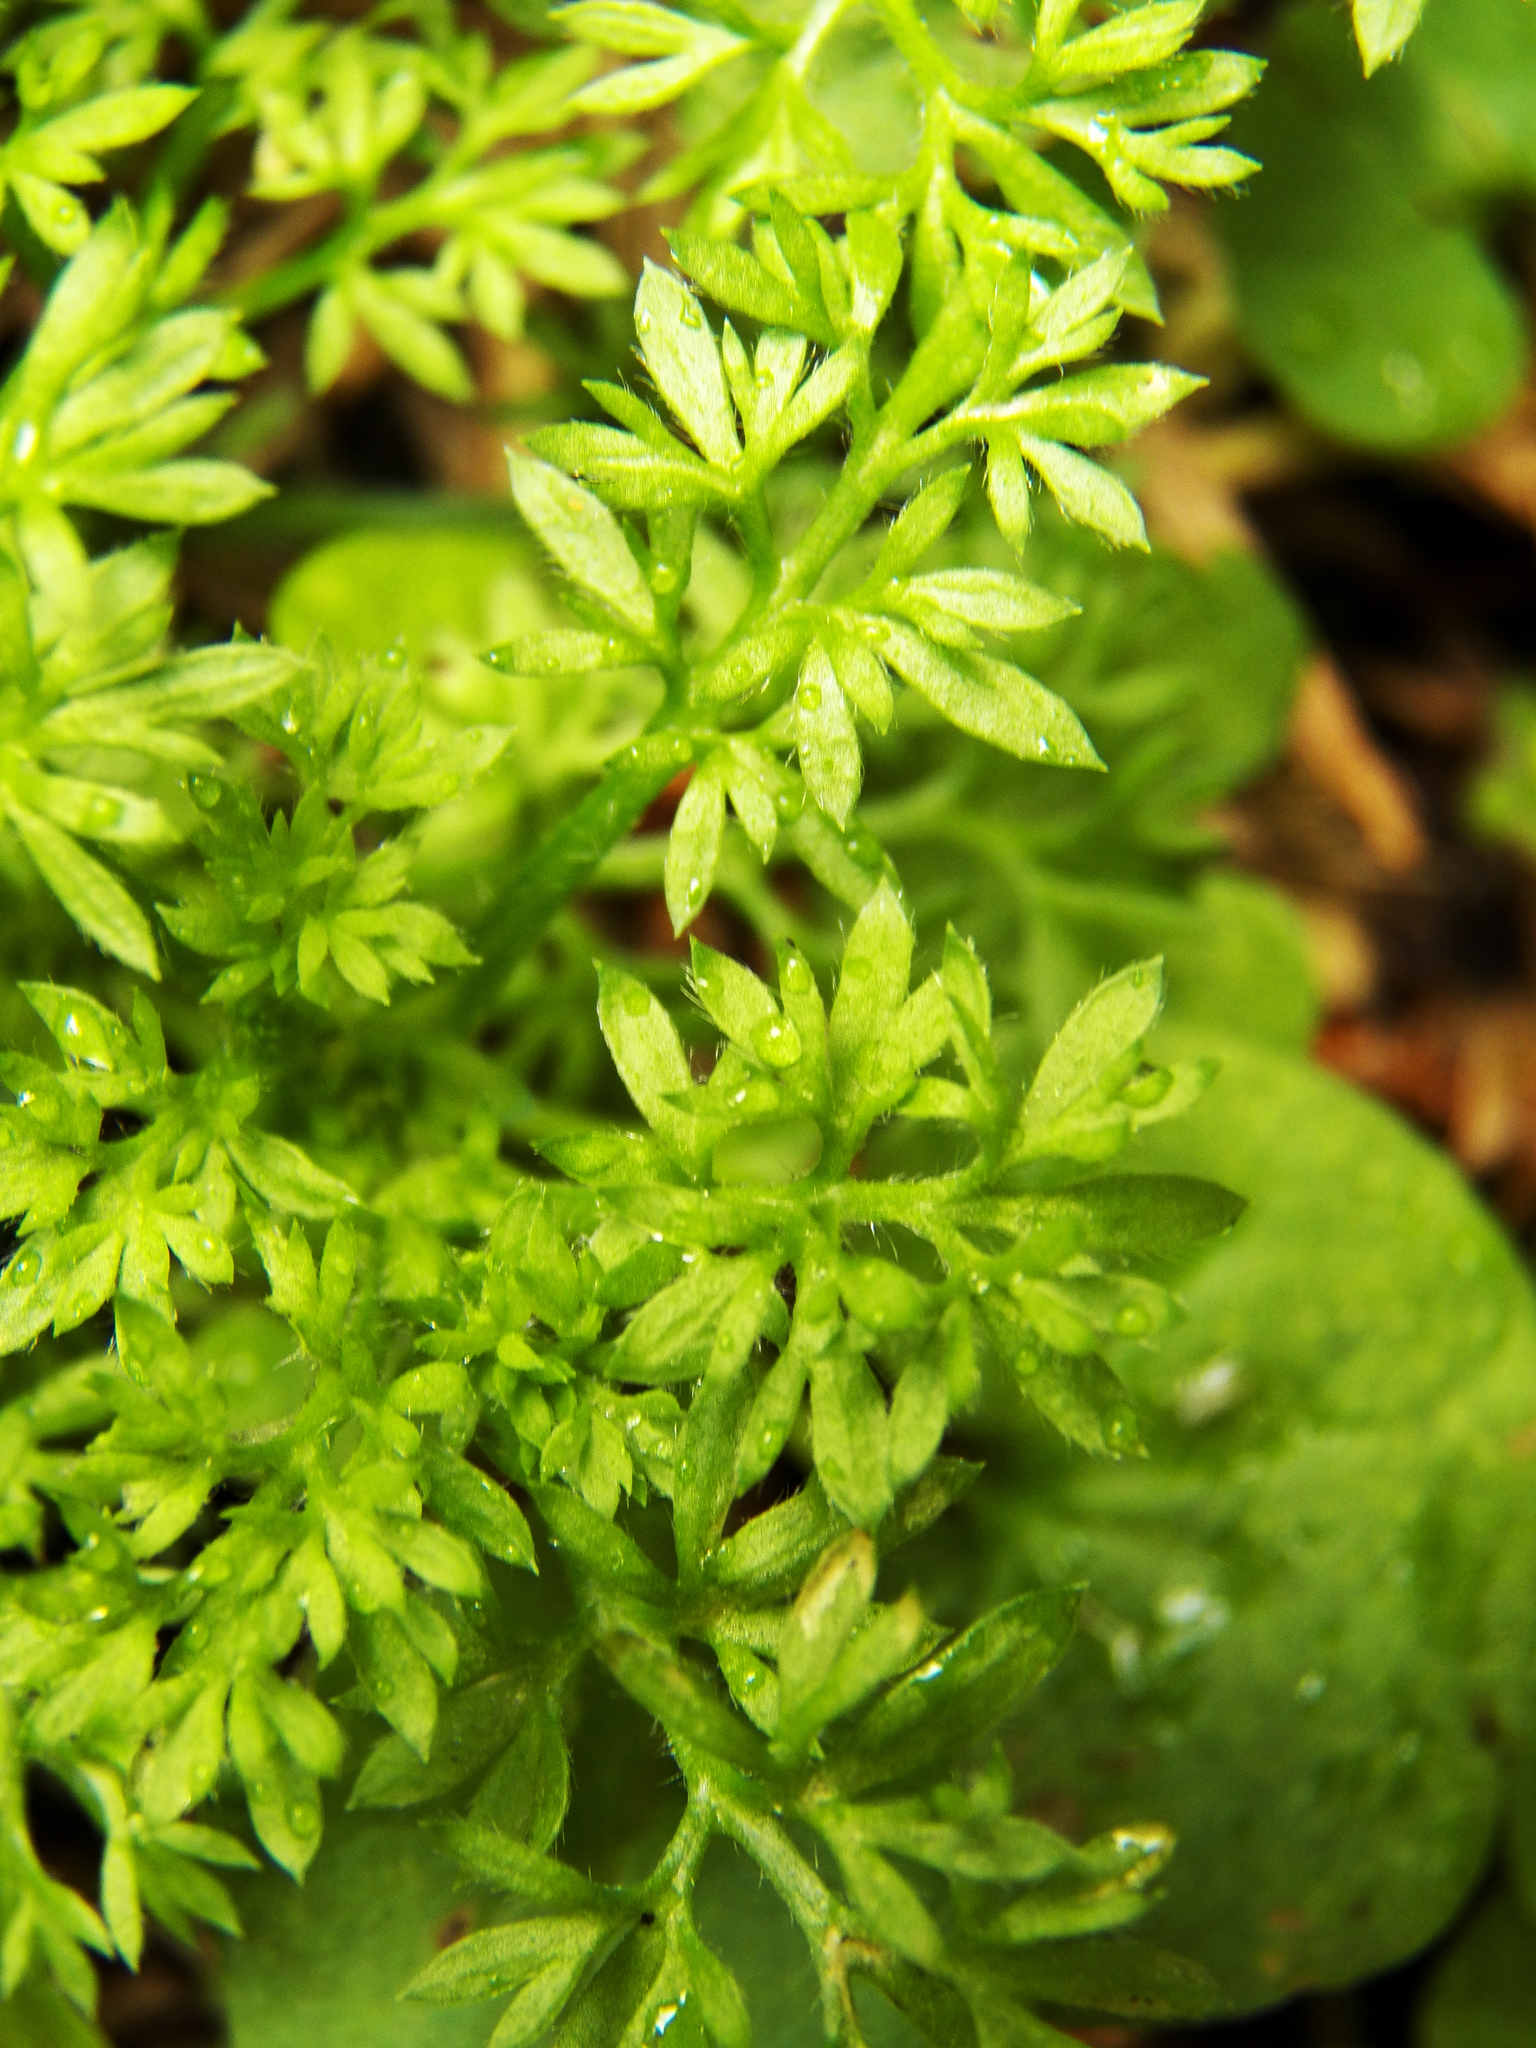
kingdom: Plantae
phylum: Tracheophyta
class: Magnoliopsida
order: Asterales
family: Asteraceae
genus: Soliva
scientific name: Soliva sessilis
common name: Field burrweed
